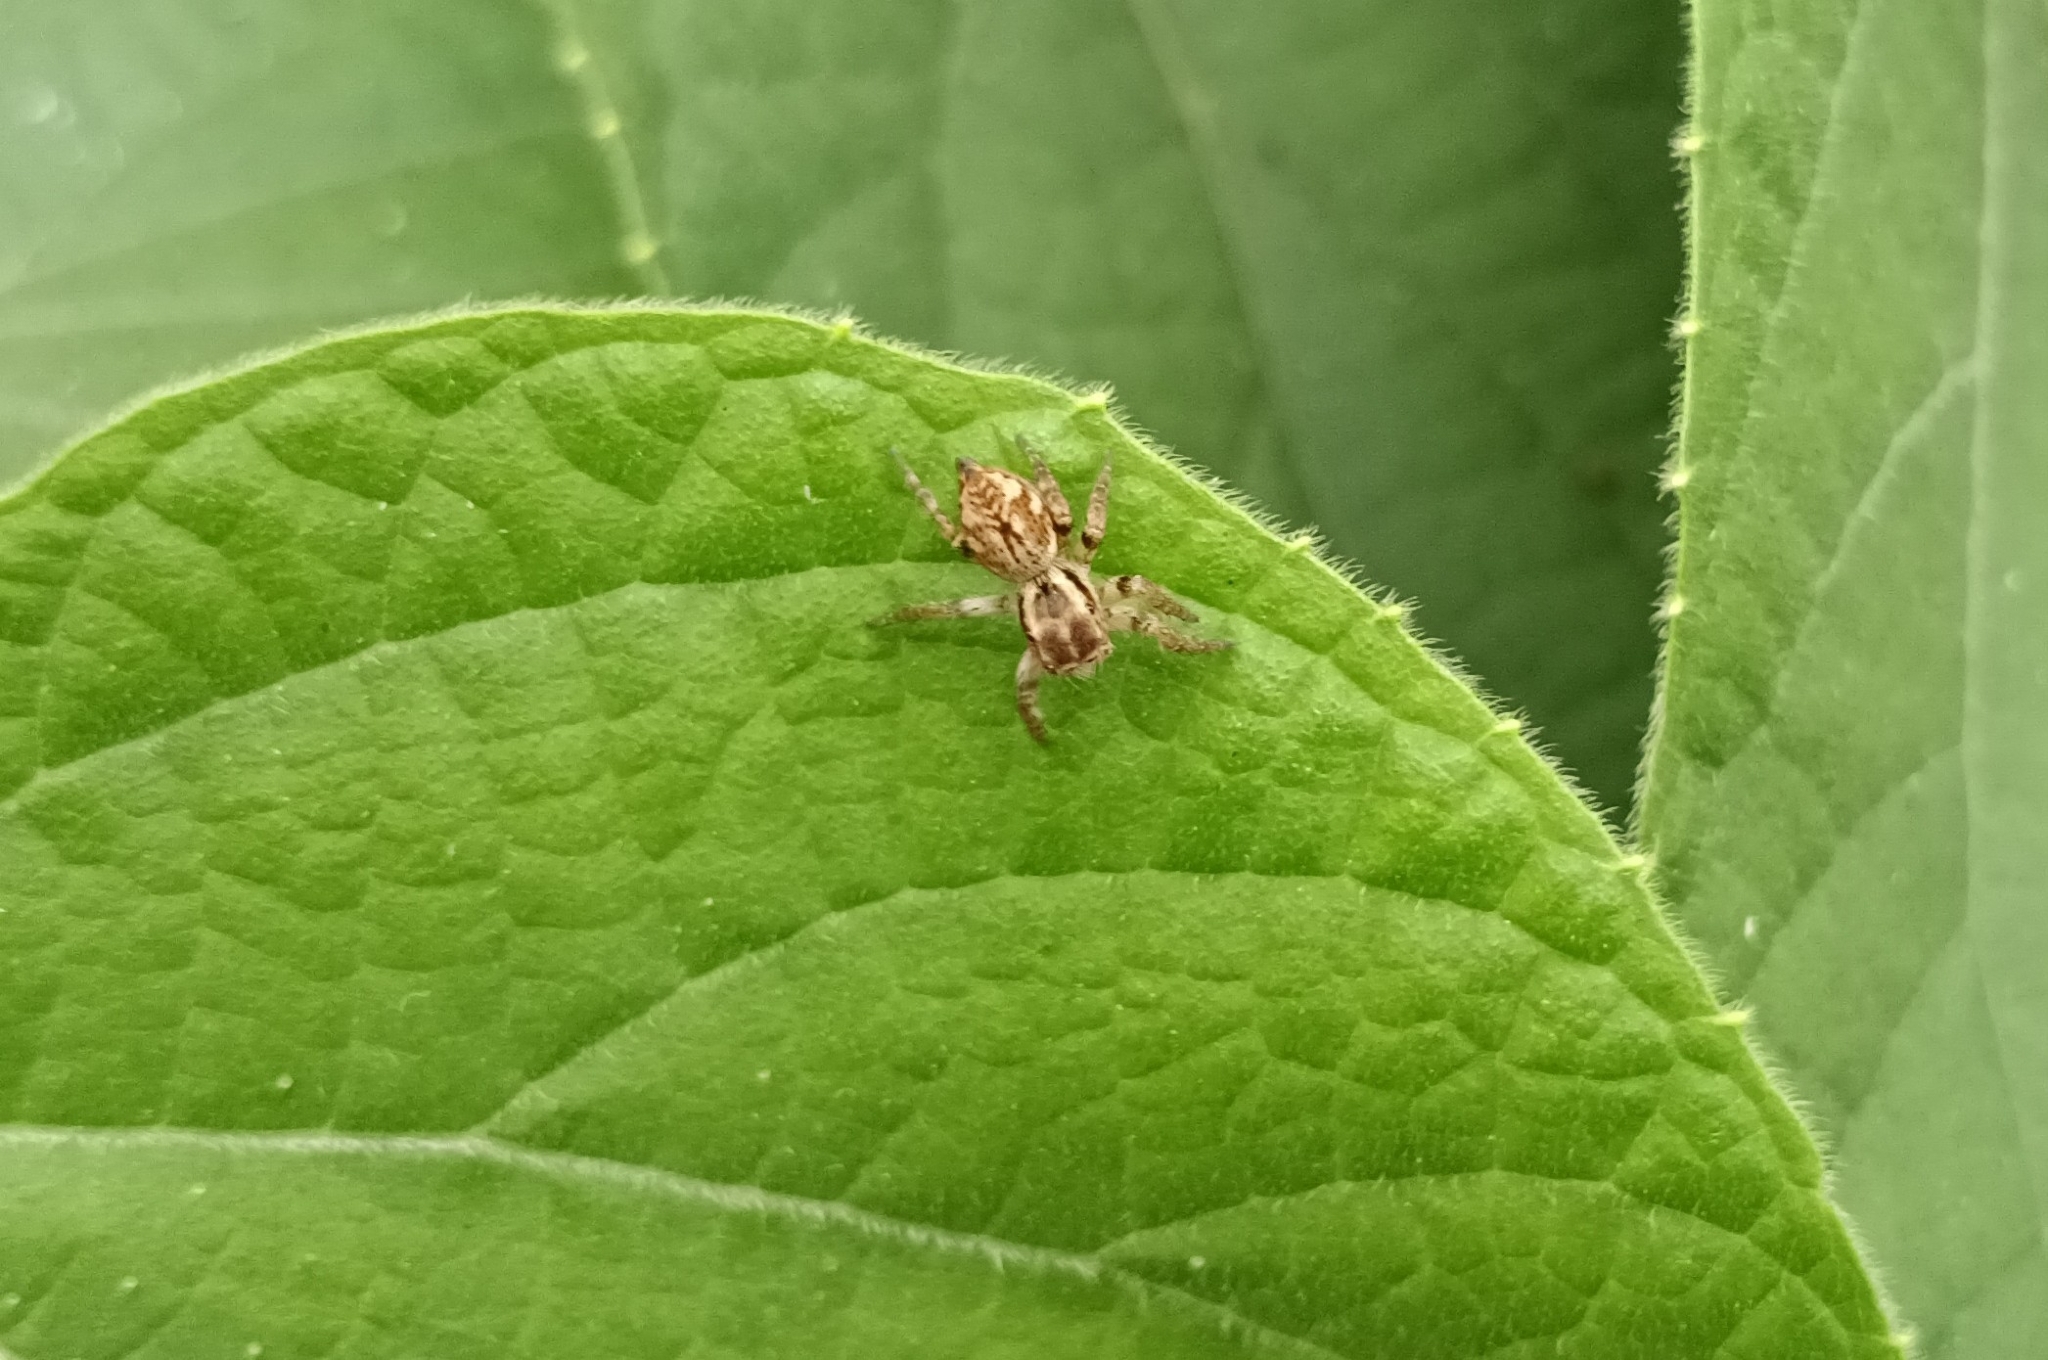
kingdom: Animalia
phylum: Arthropoda
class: Arachnida
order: Araneae
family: Salticidae
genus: Carrhotus
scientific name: Carrhotus viduus
